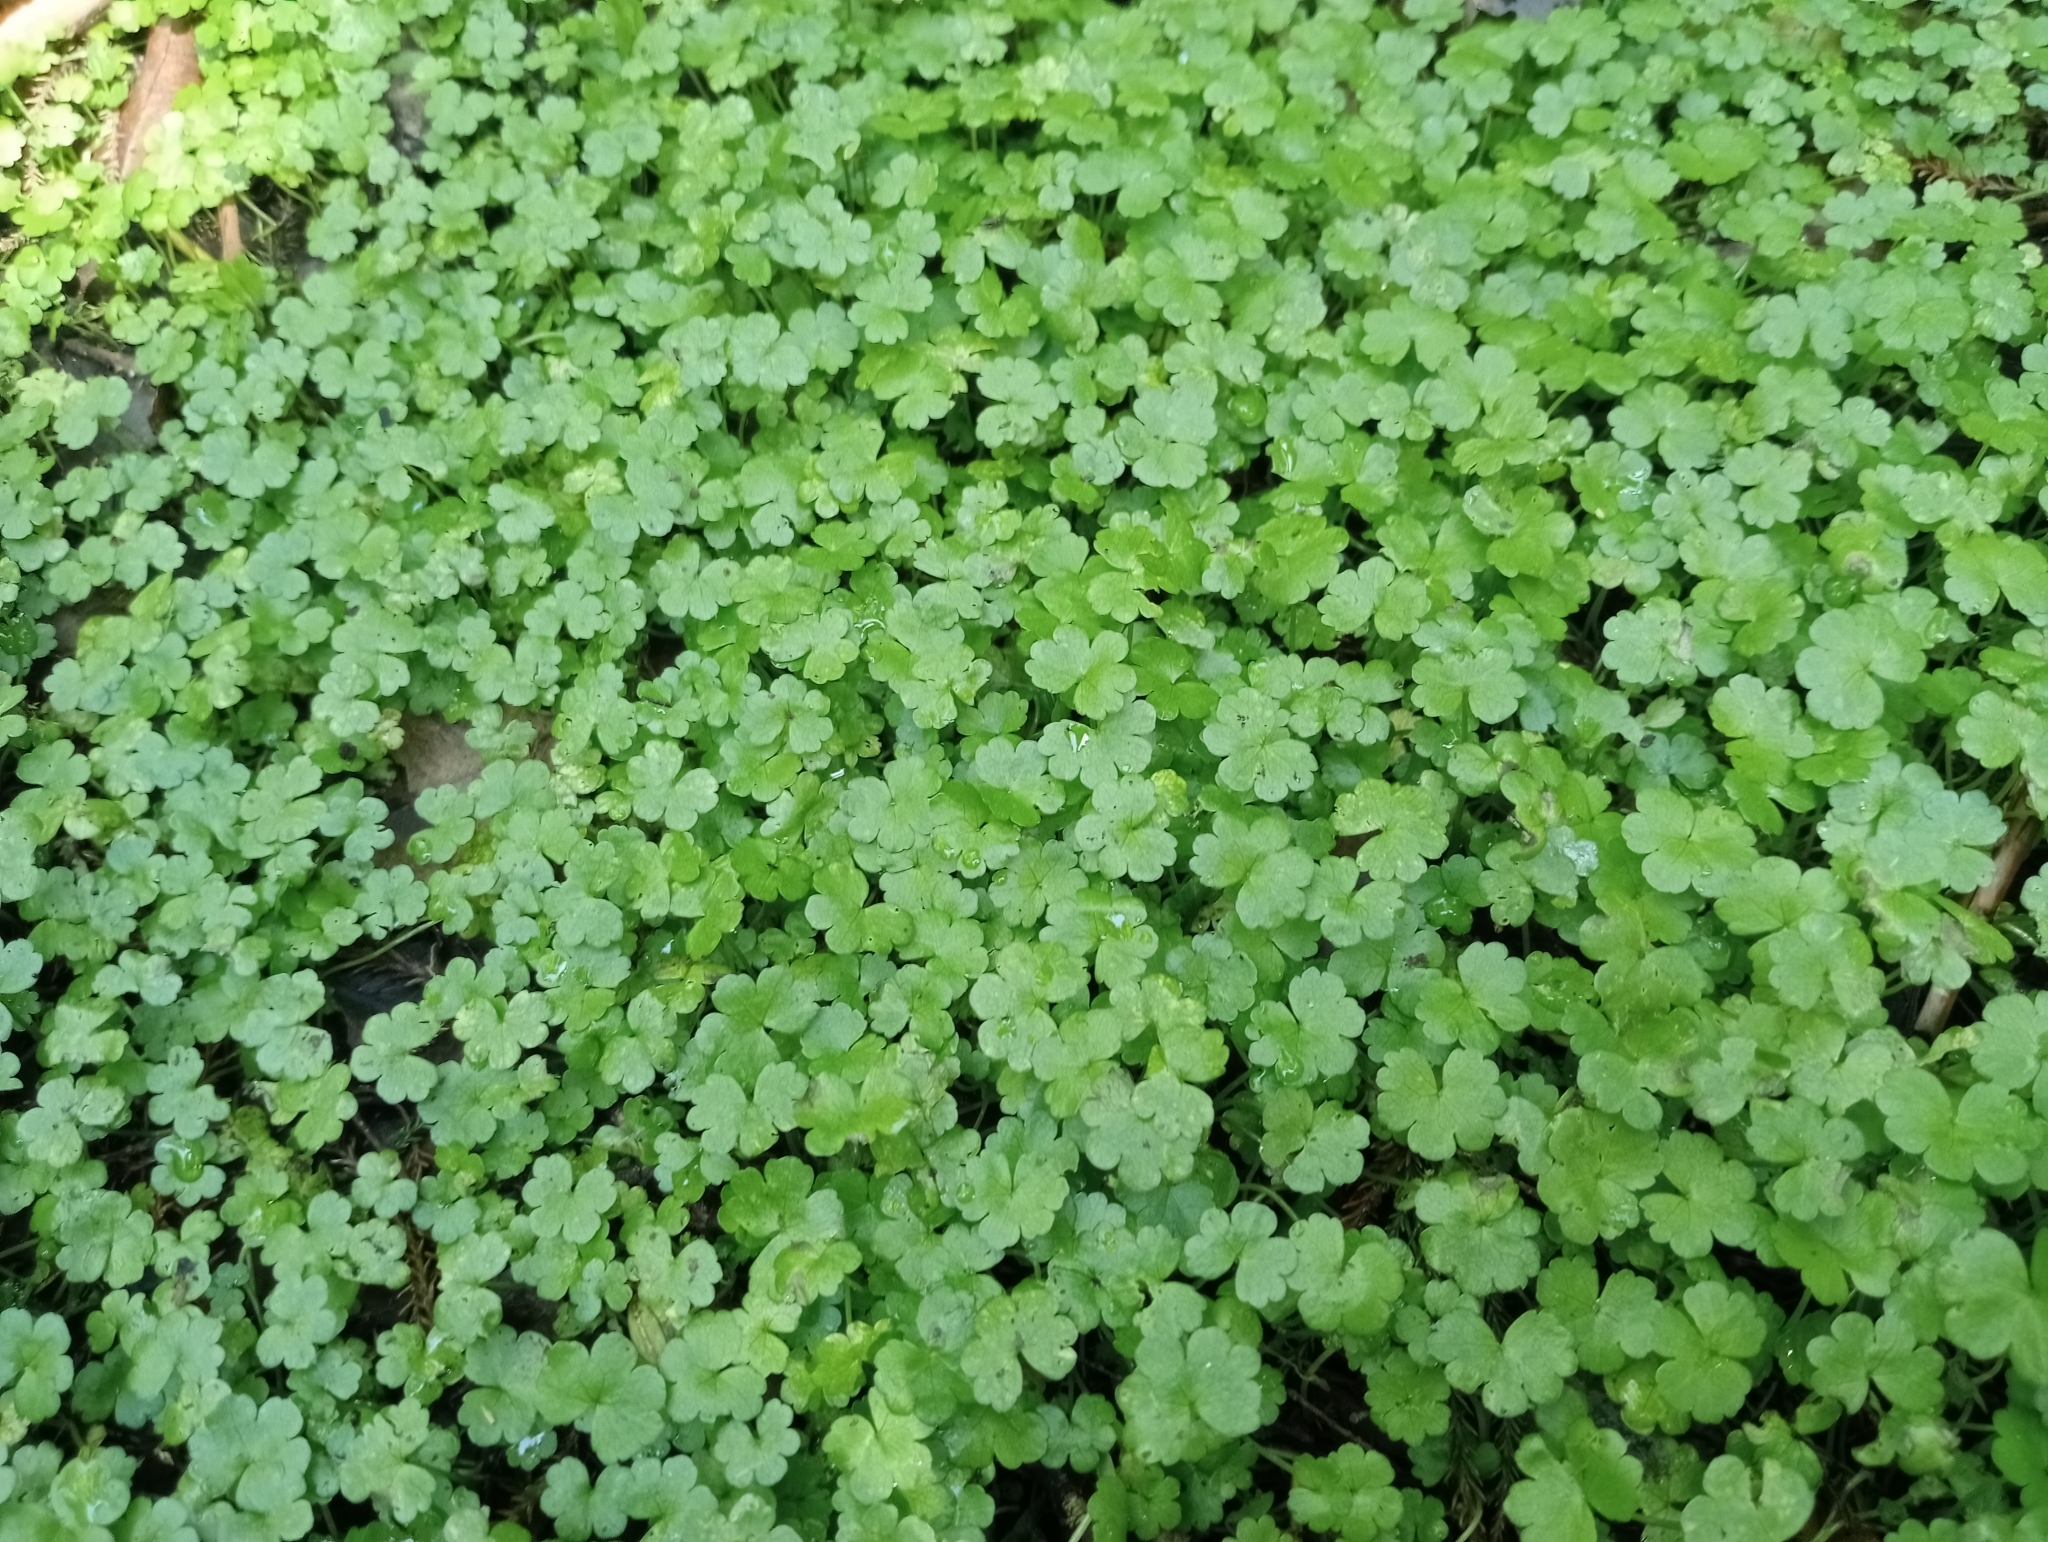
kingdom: Plantae
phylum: Tracheophyta
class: Magnoliopsida
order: Apiales
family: Araliaceae
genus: Hydrocotyle
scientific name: Hydrocotyle heteromeria
